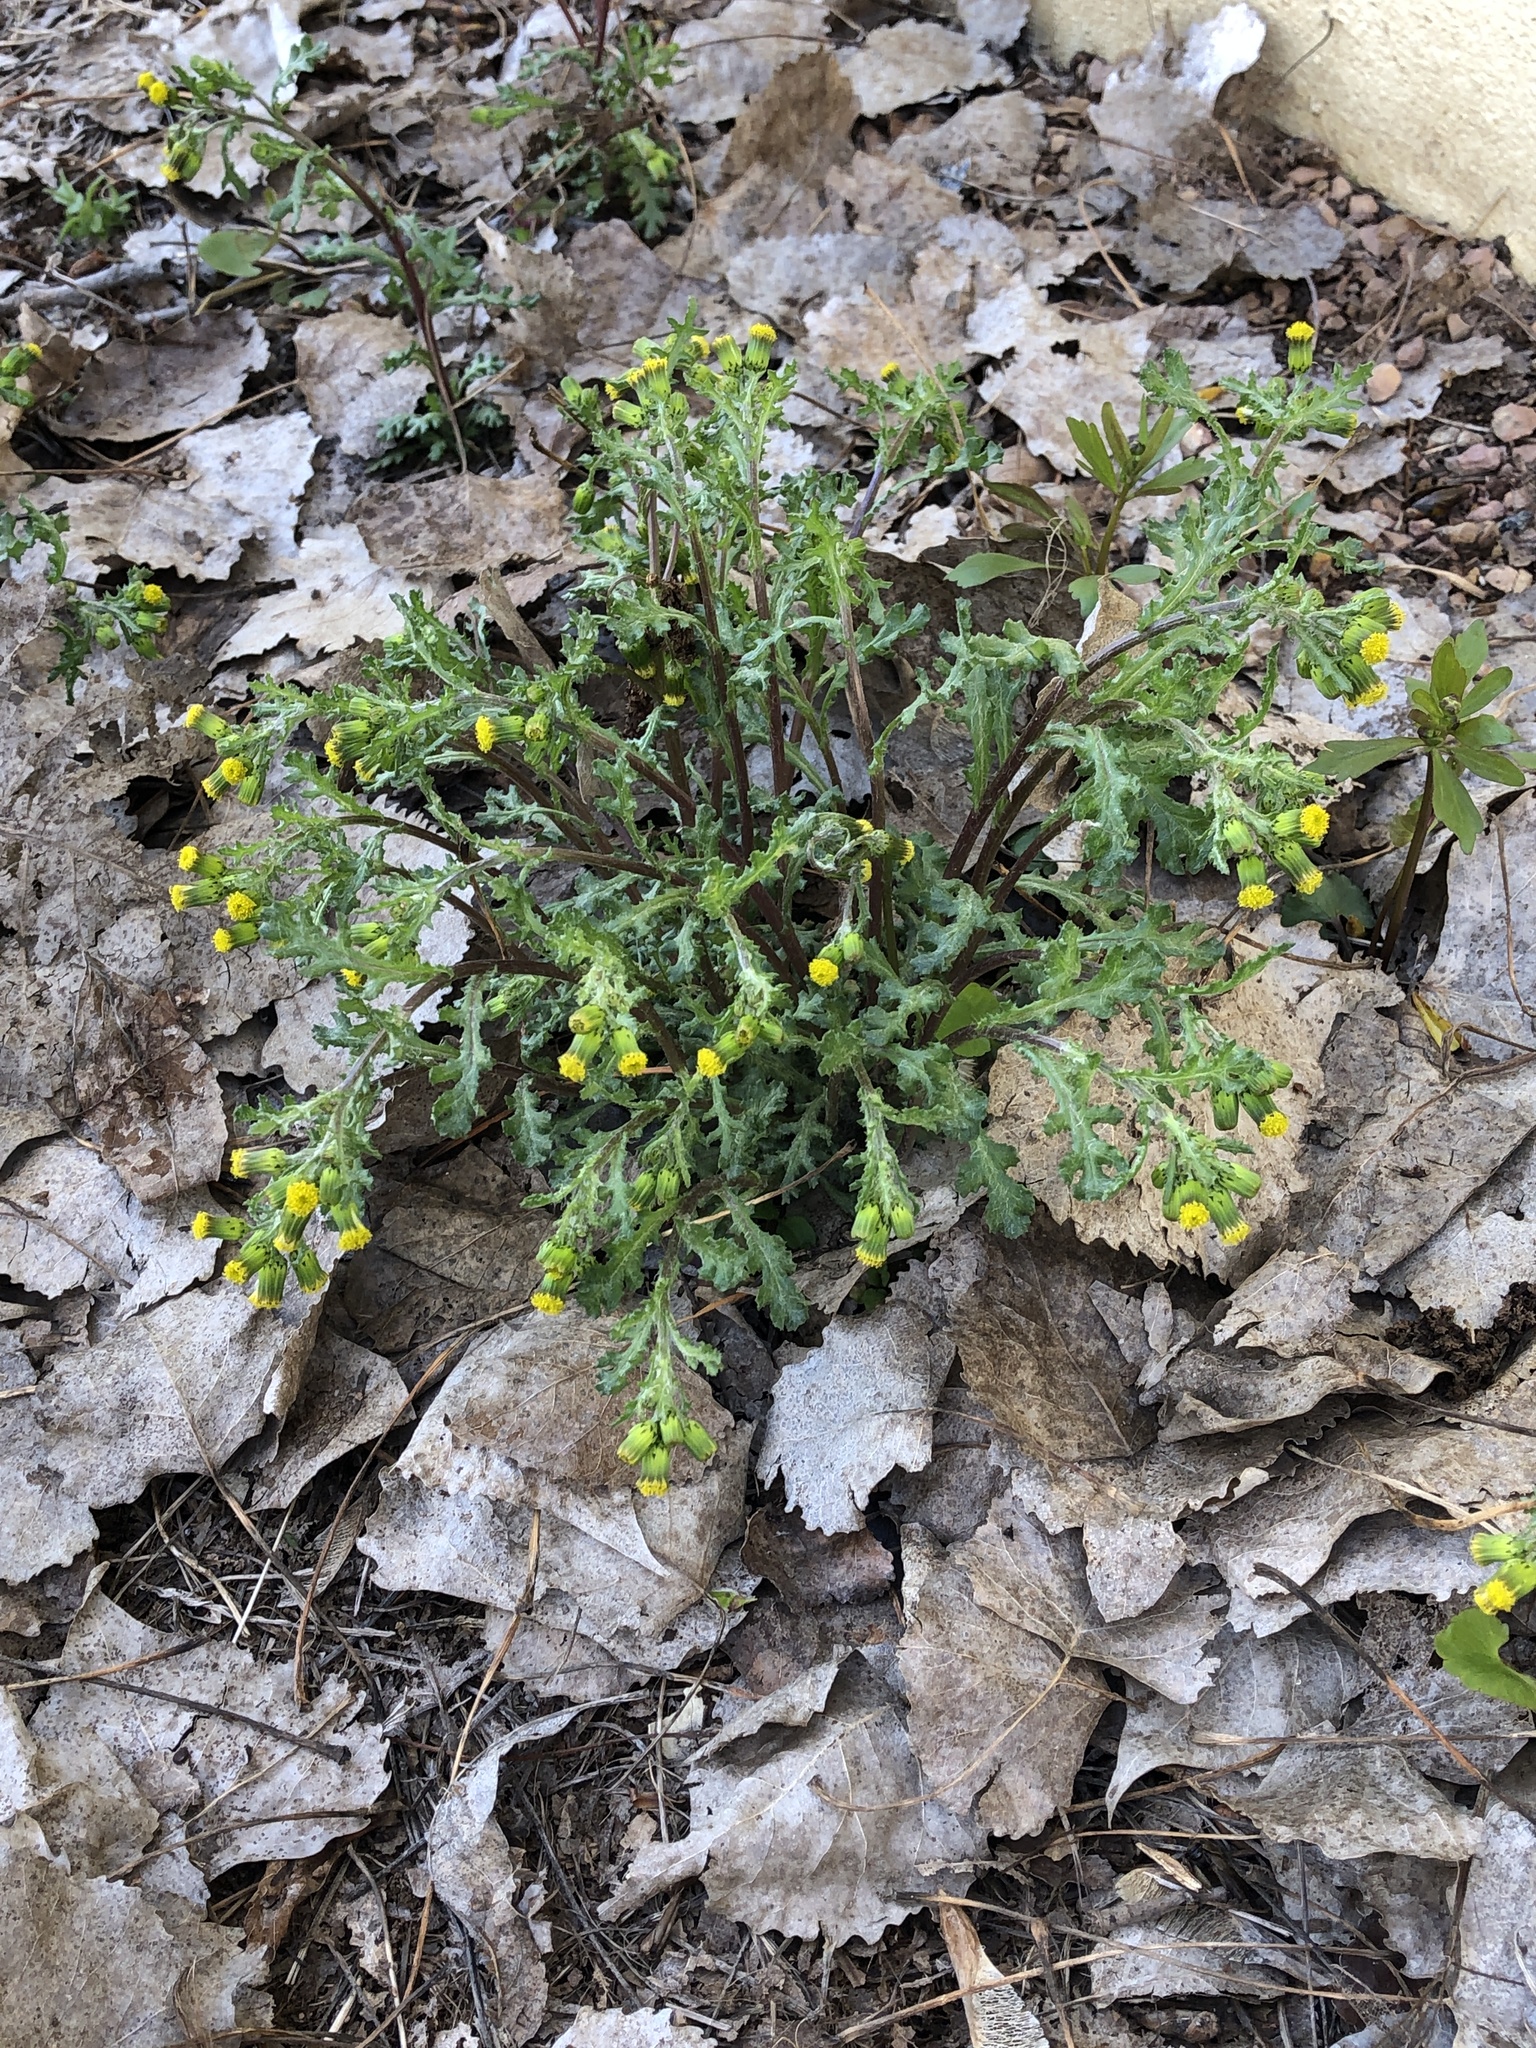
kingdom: Plantae
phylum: Tracheophyta
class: Magnoliopsida
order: Asterales
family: Asteraceae
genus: Senecio
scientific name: Senecio vulgaris
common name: Old-man-in-the-spring
